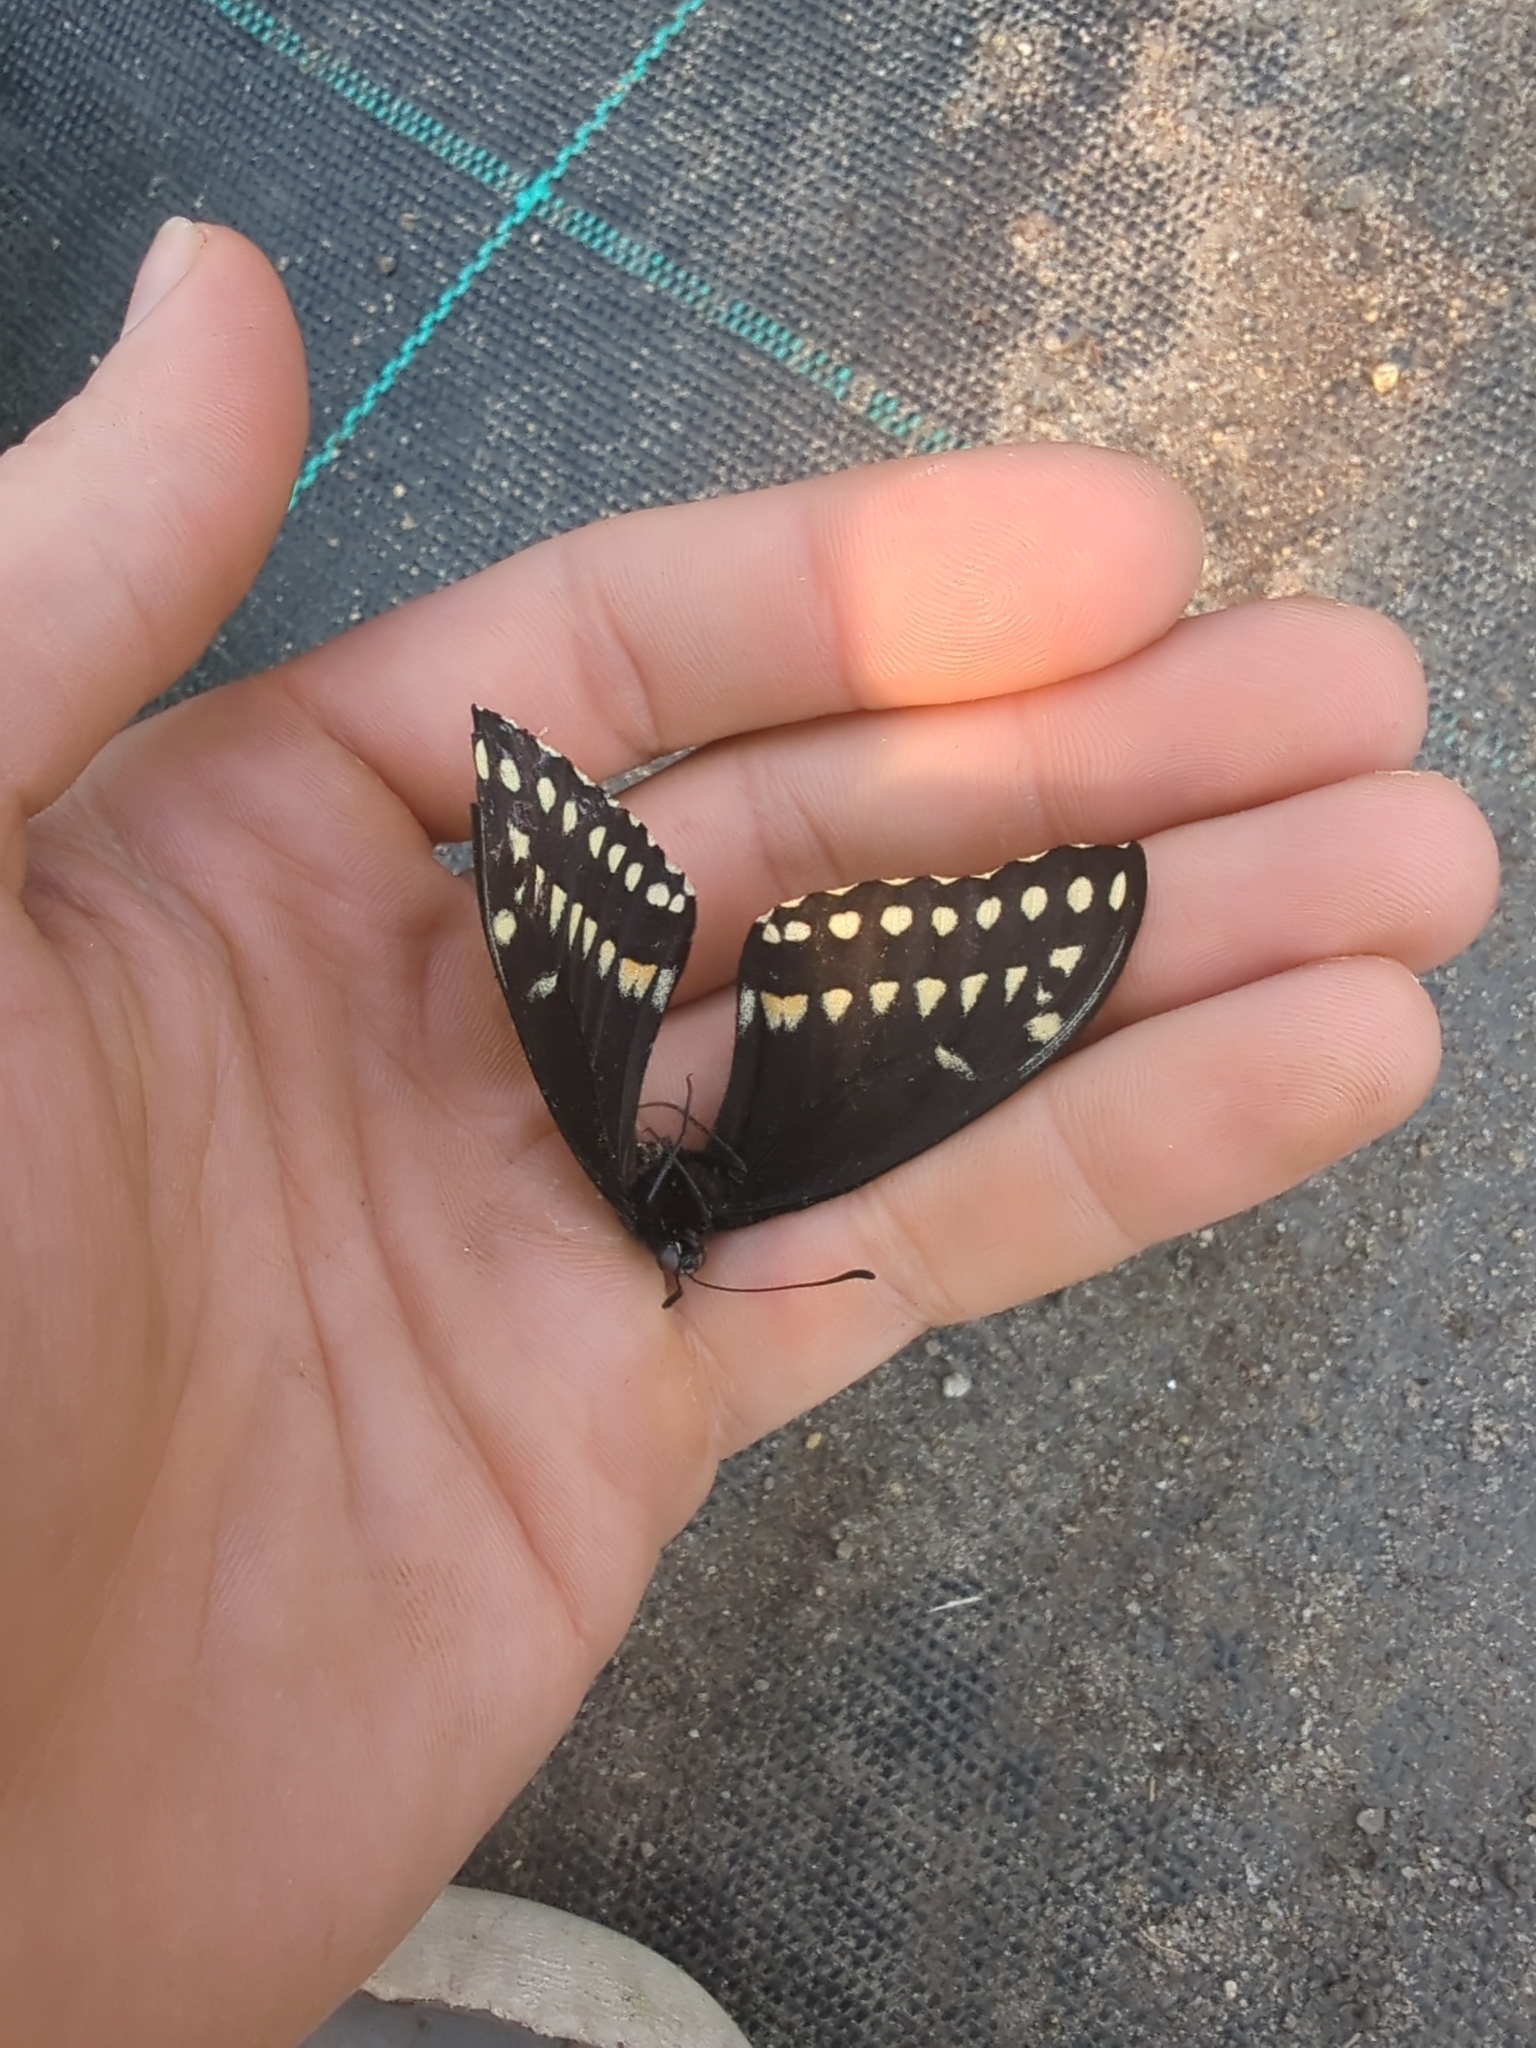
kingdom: Animalia
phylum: Arthropoda
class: Insecta
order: Lepidoptera
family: Papilionidae
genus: Papilio
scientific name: Papilio polyxenes
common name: Black swallowtail
